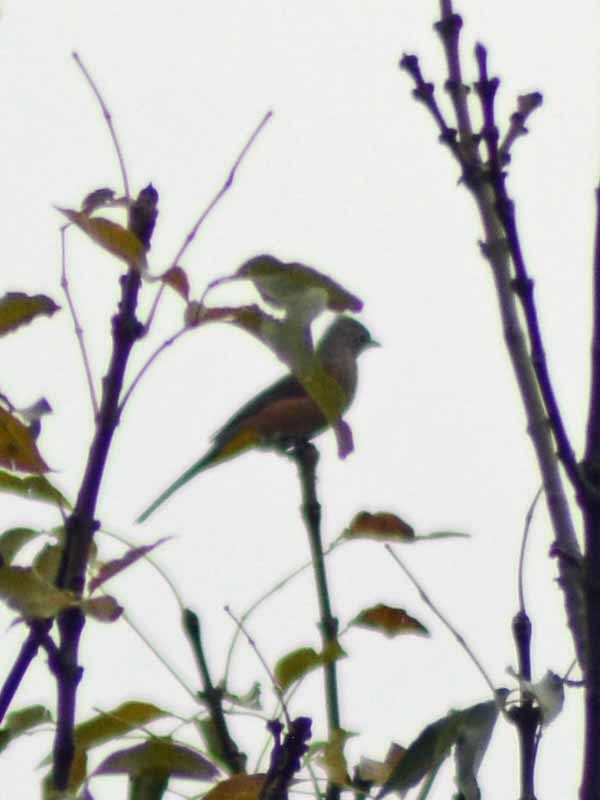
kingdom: Animalia
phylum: Chordata
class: Aves
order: Passeriformes
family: Ptilogonatidae
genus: Ptilogonys
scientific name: Ptilogonys cinereus
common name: Gray silky-flycatcher
